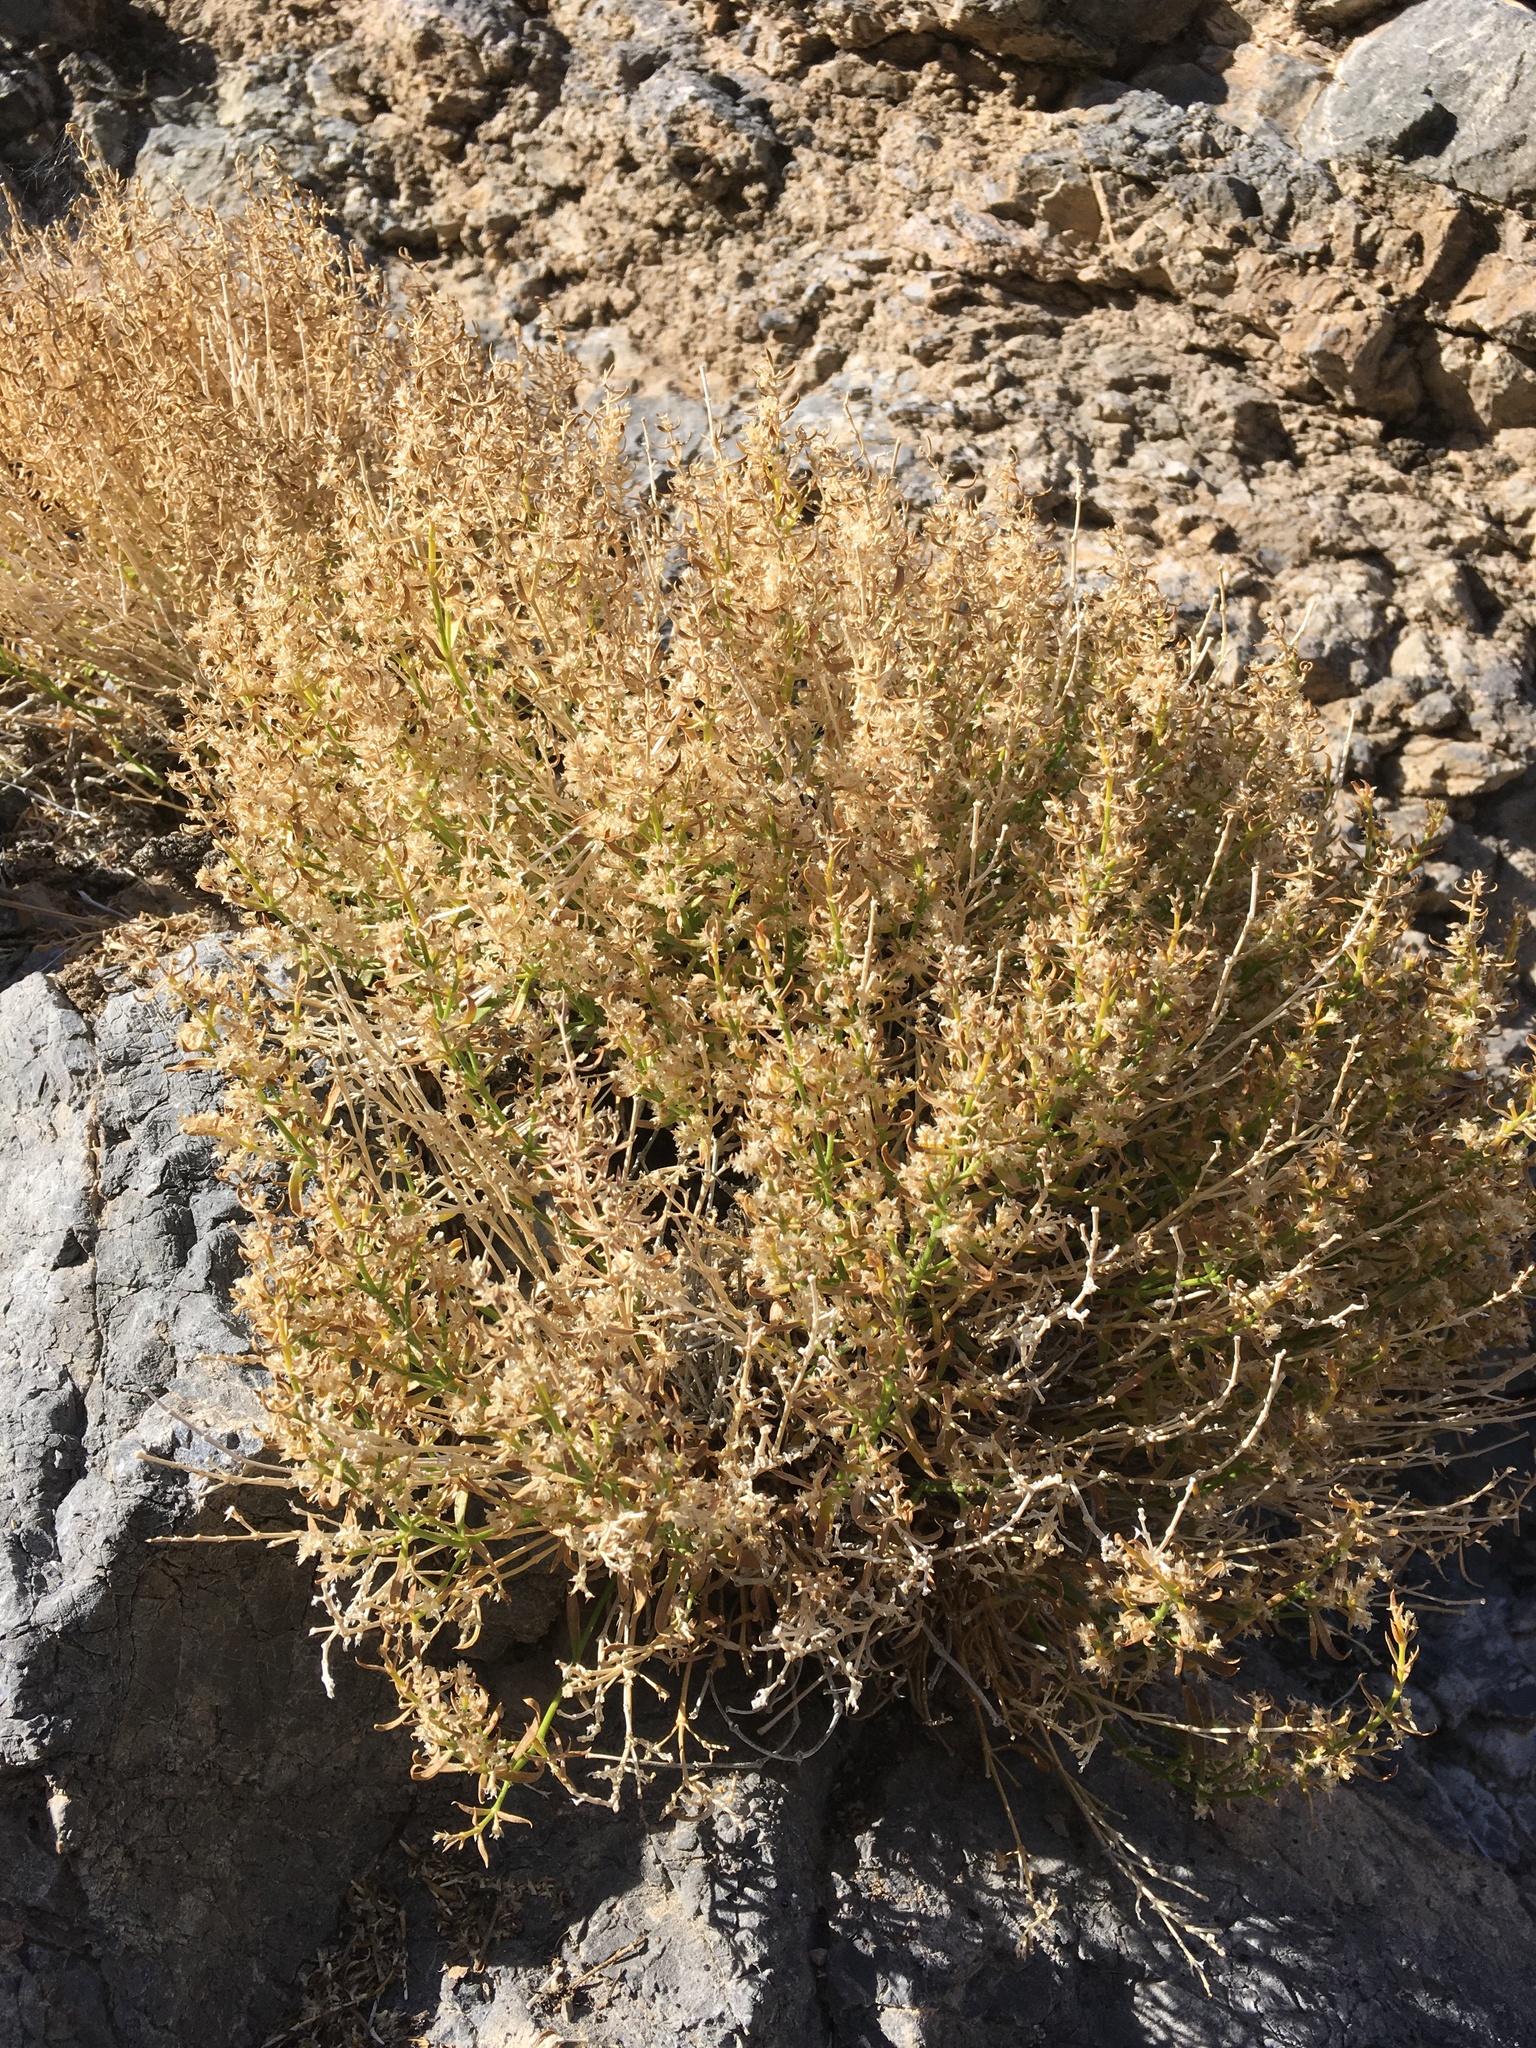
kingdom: Plantae
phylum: Tracheophyta
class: Magnoliopsida
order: Caryophyllales
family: Caryophyllaceae
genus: Scopulophila
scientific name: Scopulophila rixfordii
